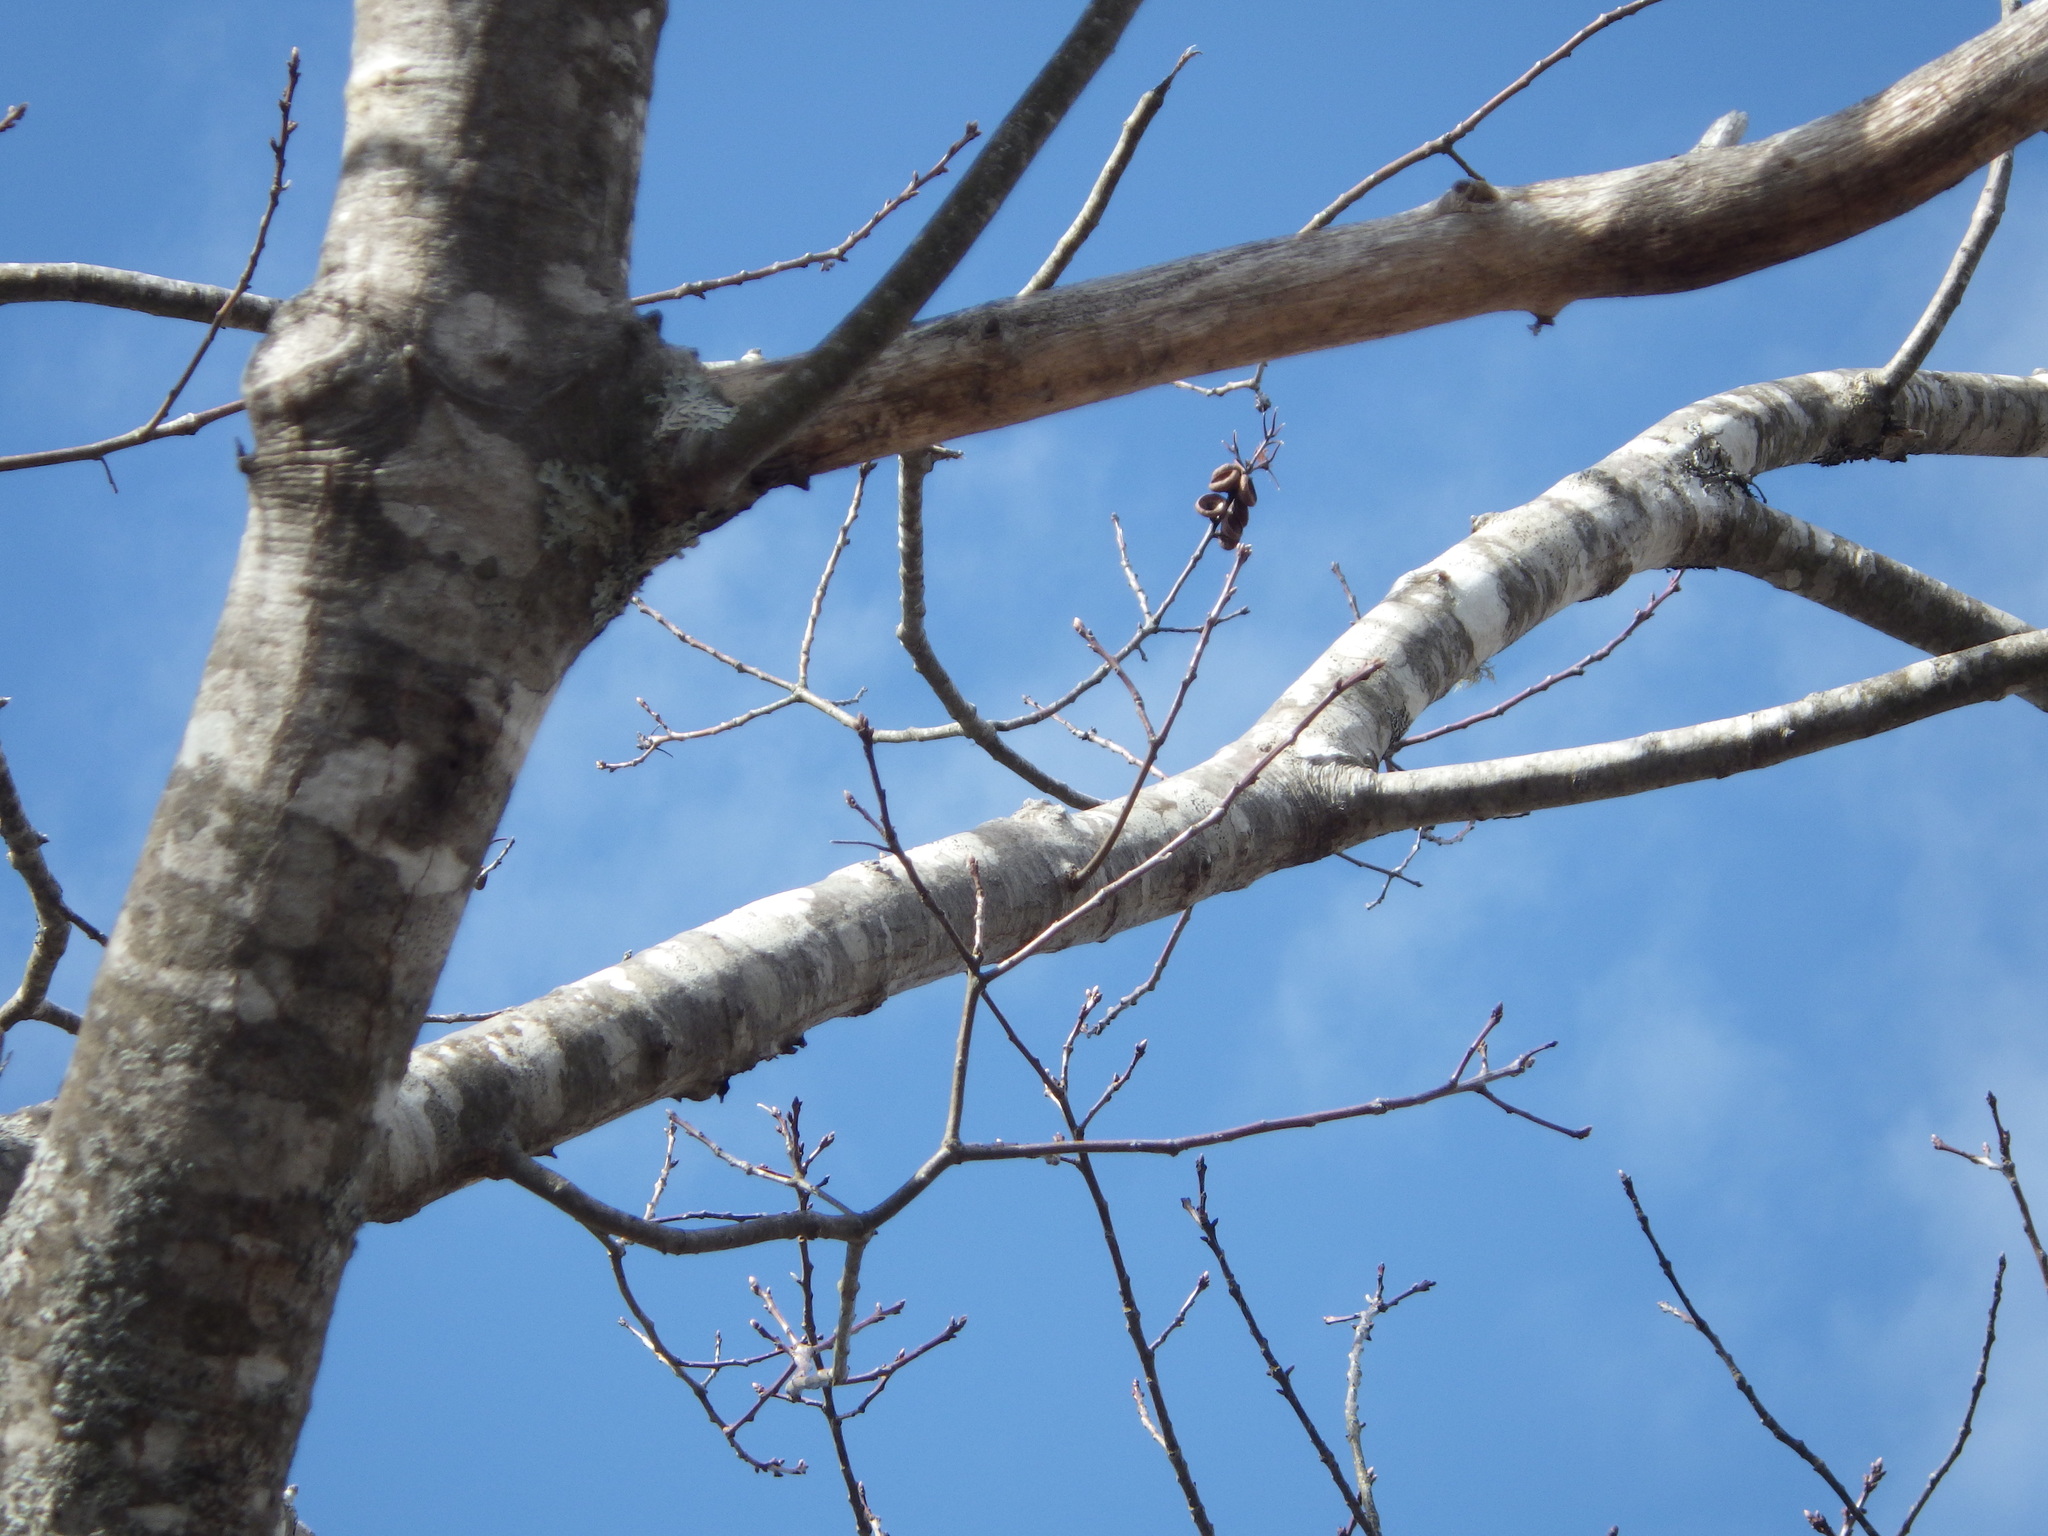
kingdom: Plantae
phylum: Tracheophyta
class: Magnoliopsida
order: Fagales
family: Fagaceae
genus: Quercus
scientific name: Quercus rubra
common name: Red oak
